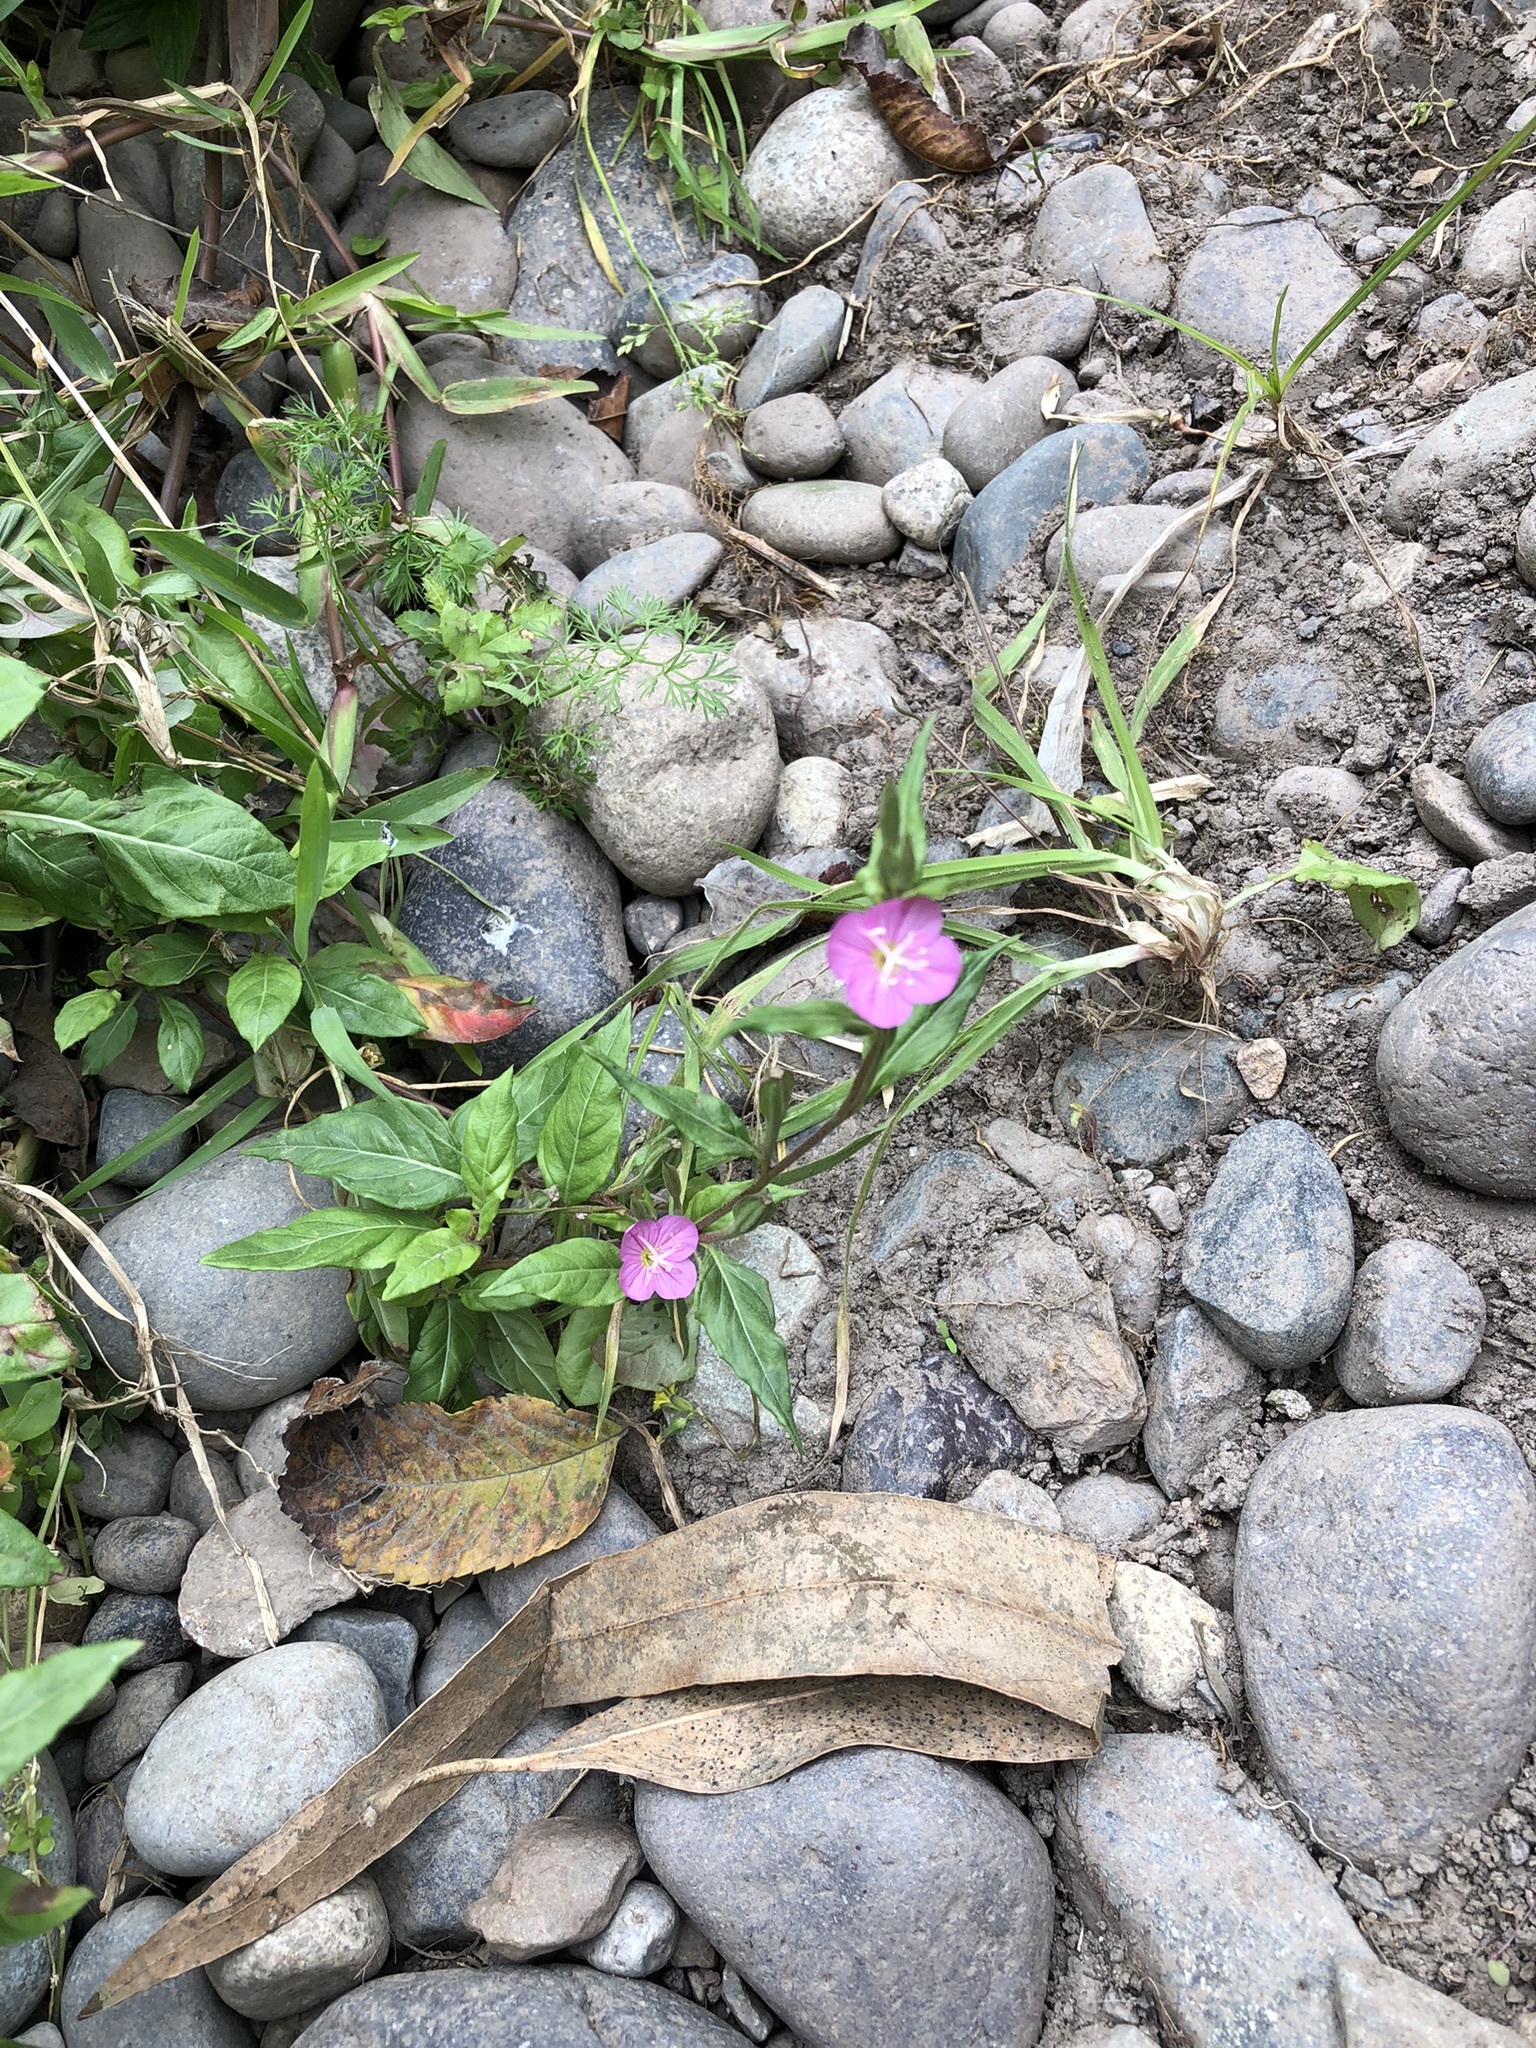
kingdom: Plantae
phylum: Tracheophyta
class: Magnoliopsida
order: Myrtales
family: Onagraceae
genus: Oenothera
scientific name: Oenothera rosea
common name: Rosy evening-primrose
